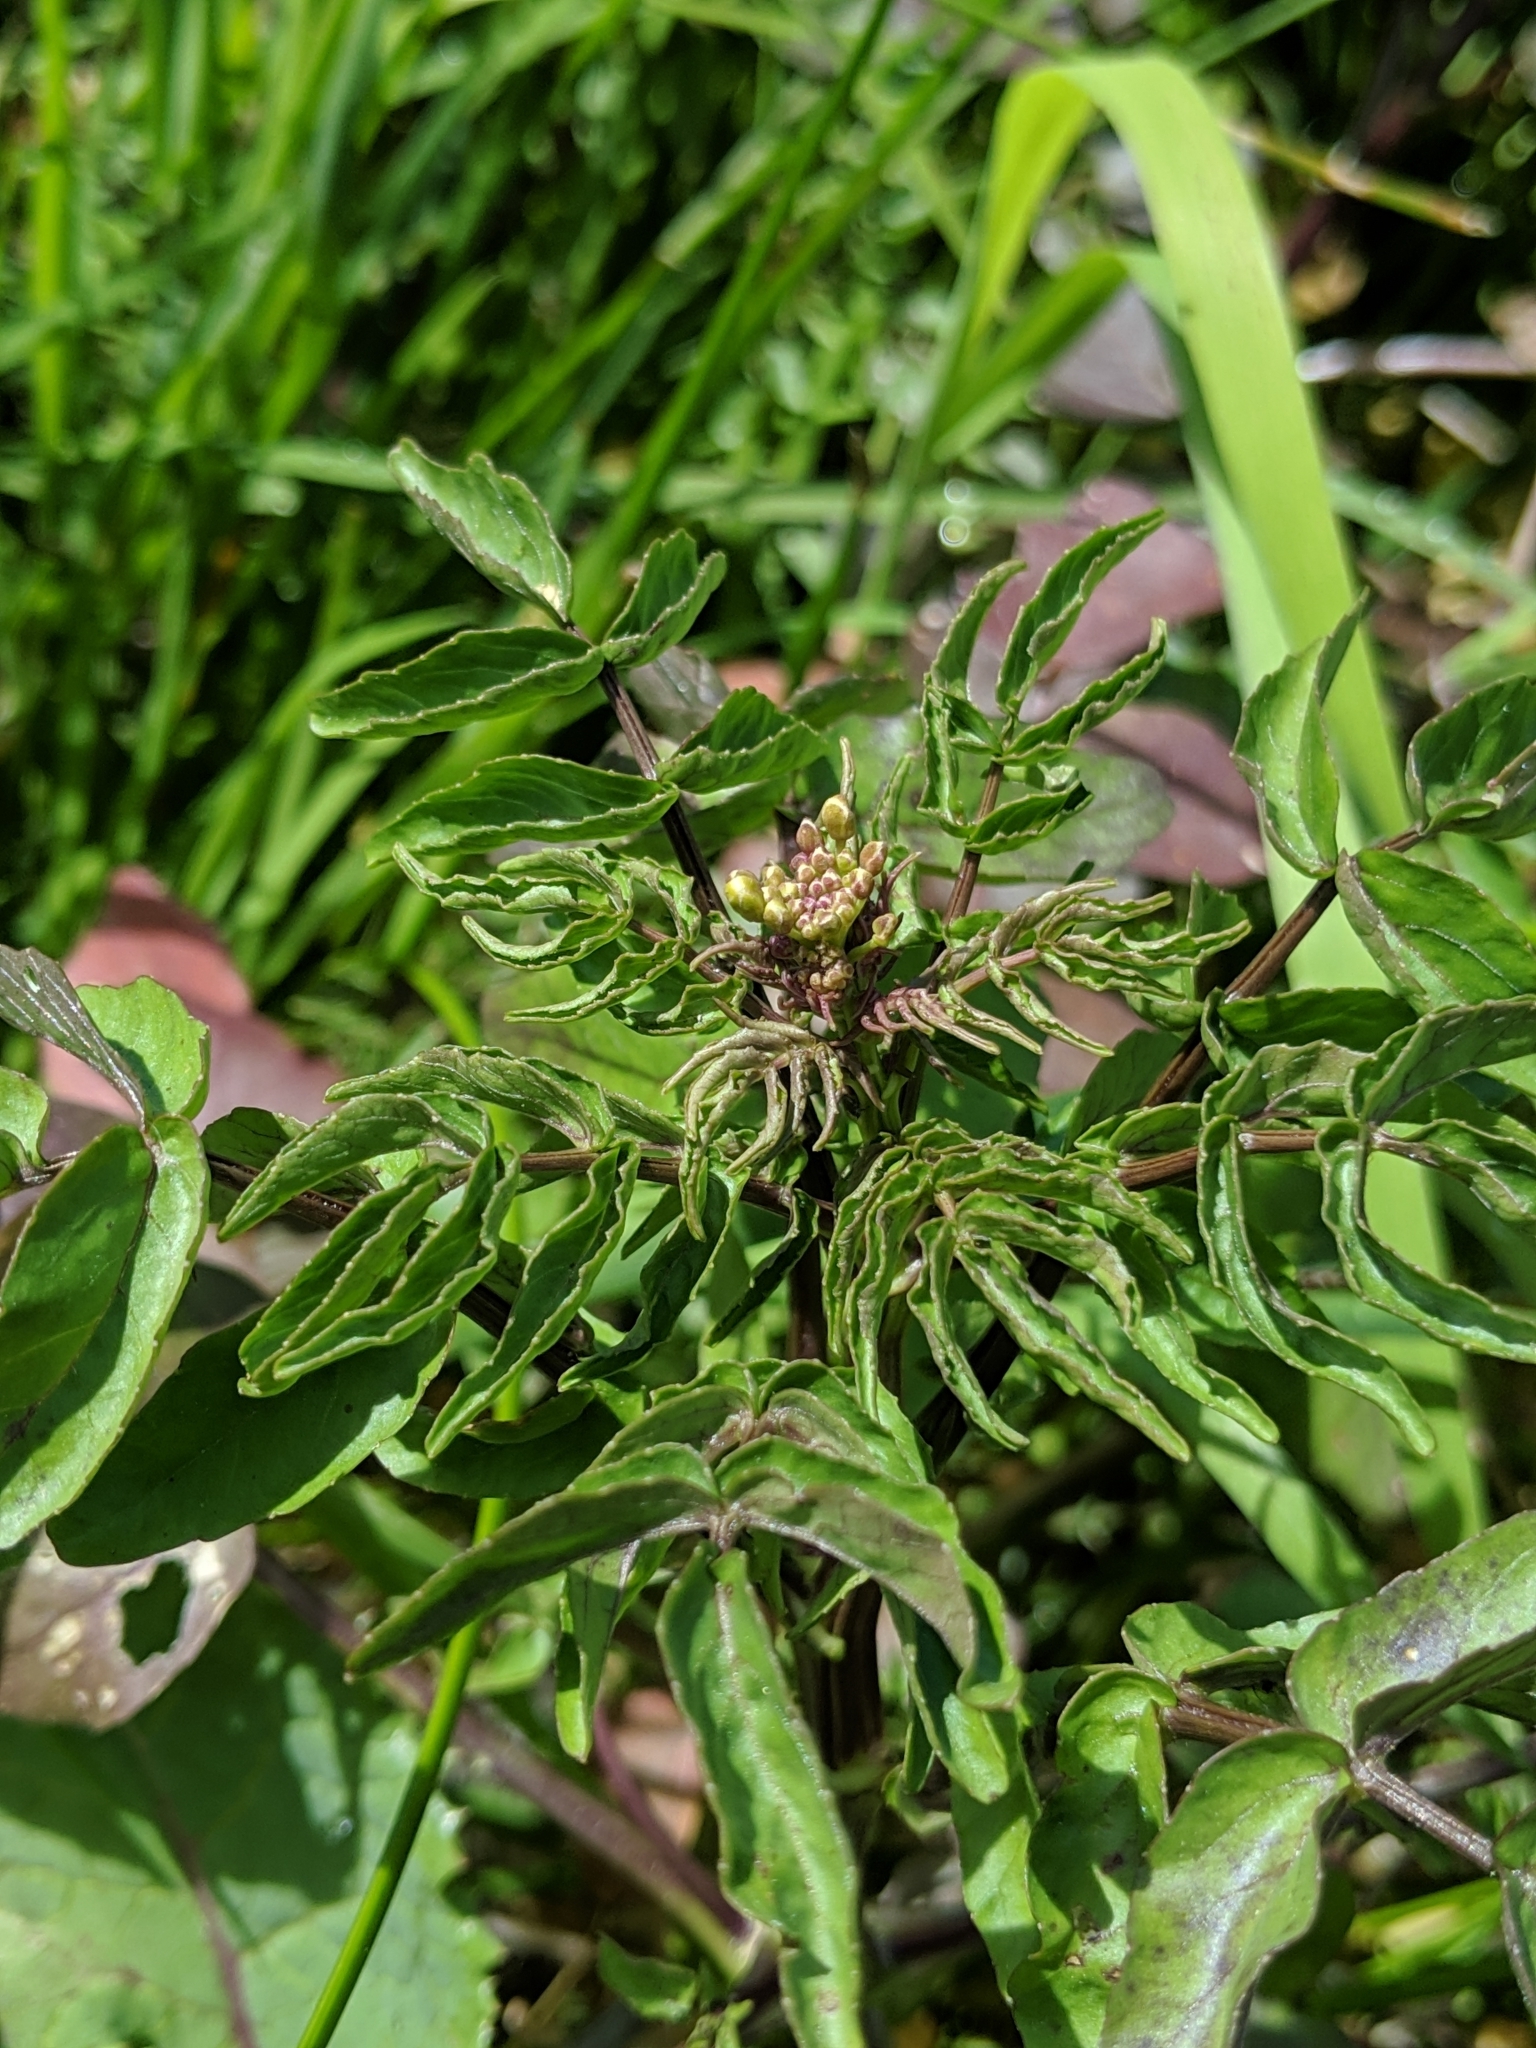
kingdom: Plantae
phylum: Tracheophyta
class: Magnoliopsida
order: Brassicales
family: Brassicaceae
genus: Nasturtium
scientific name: Nasturtium officinale
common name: Watercress
